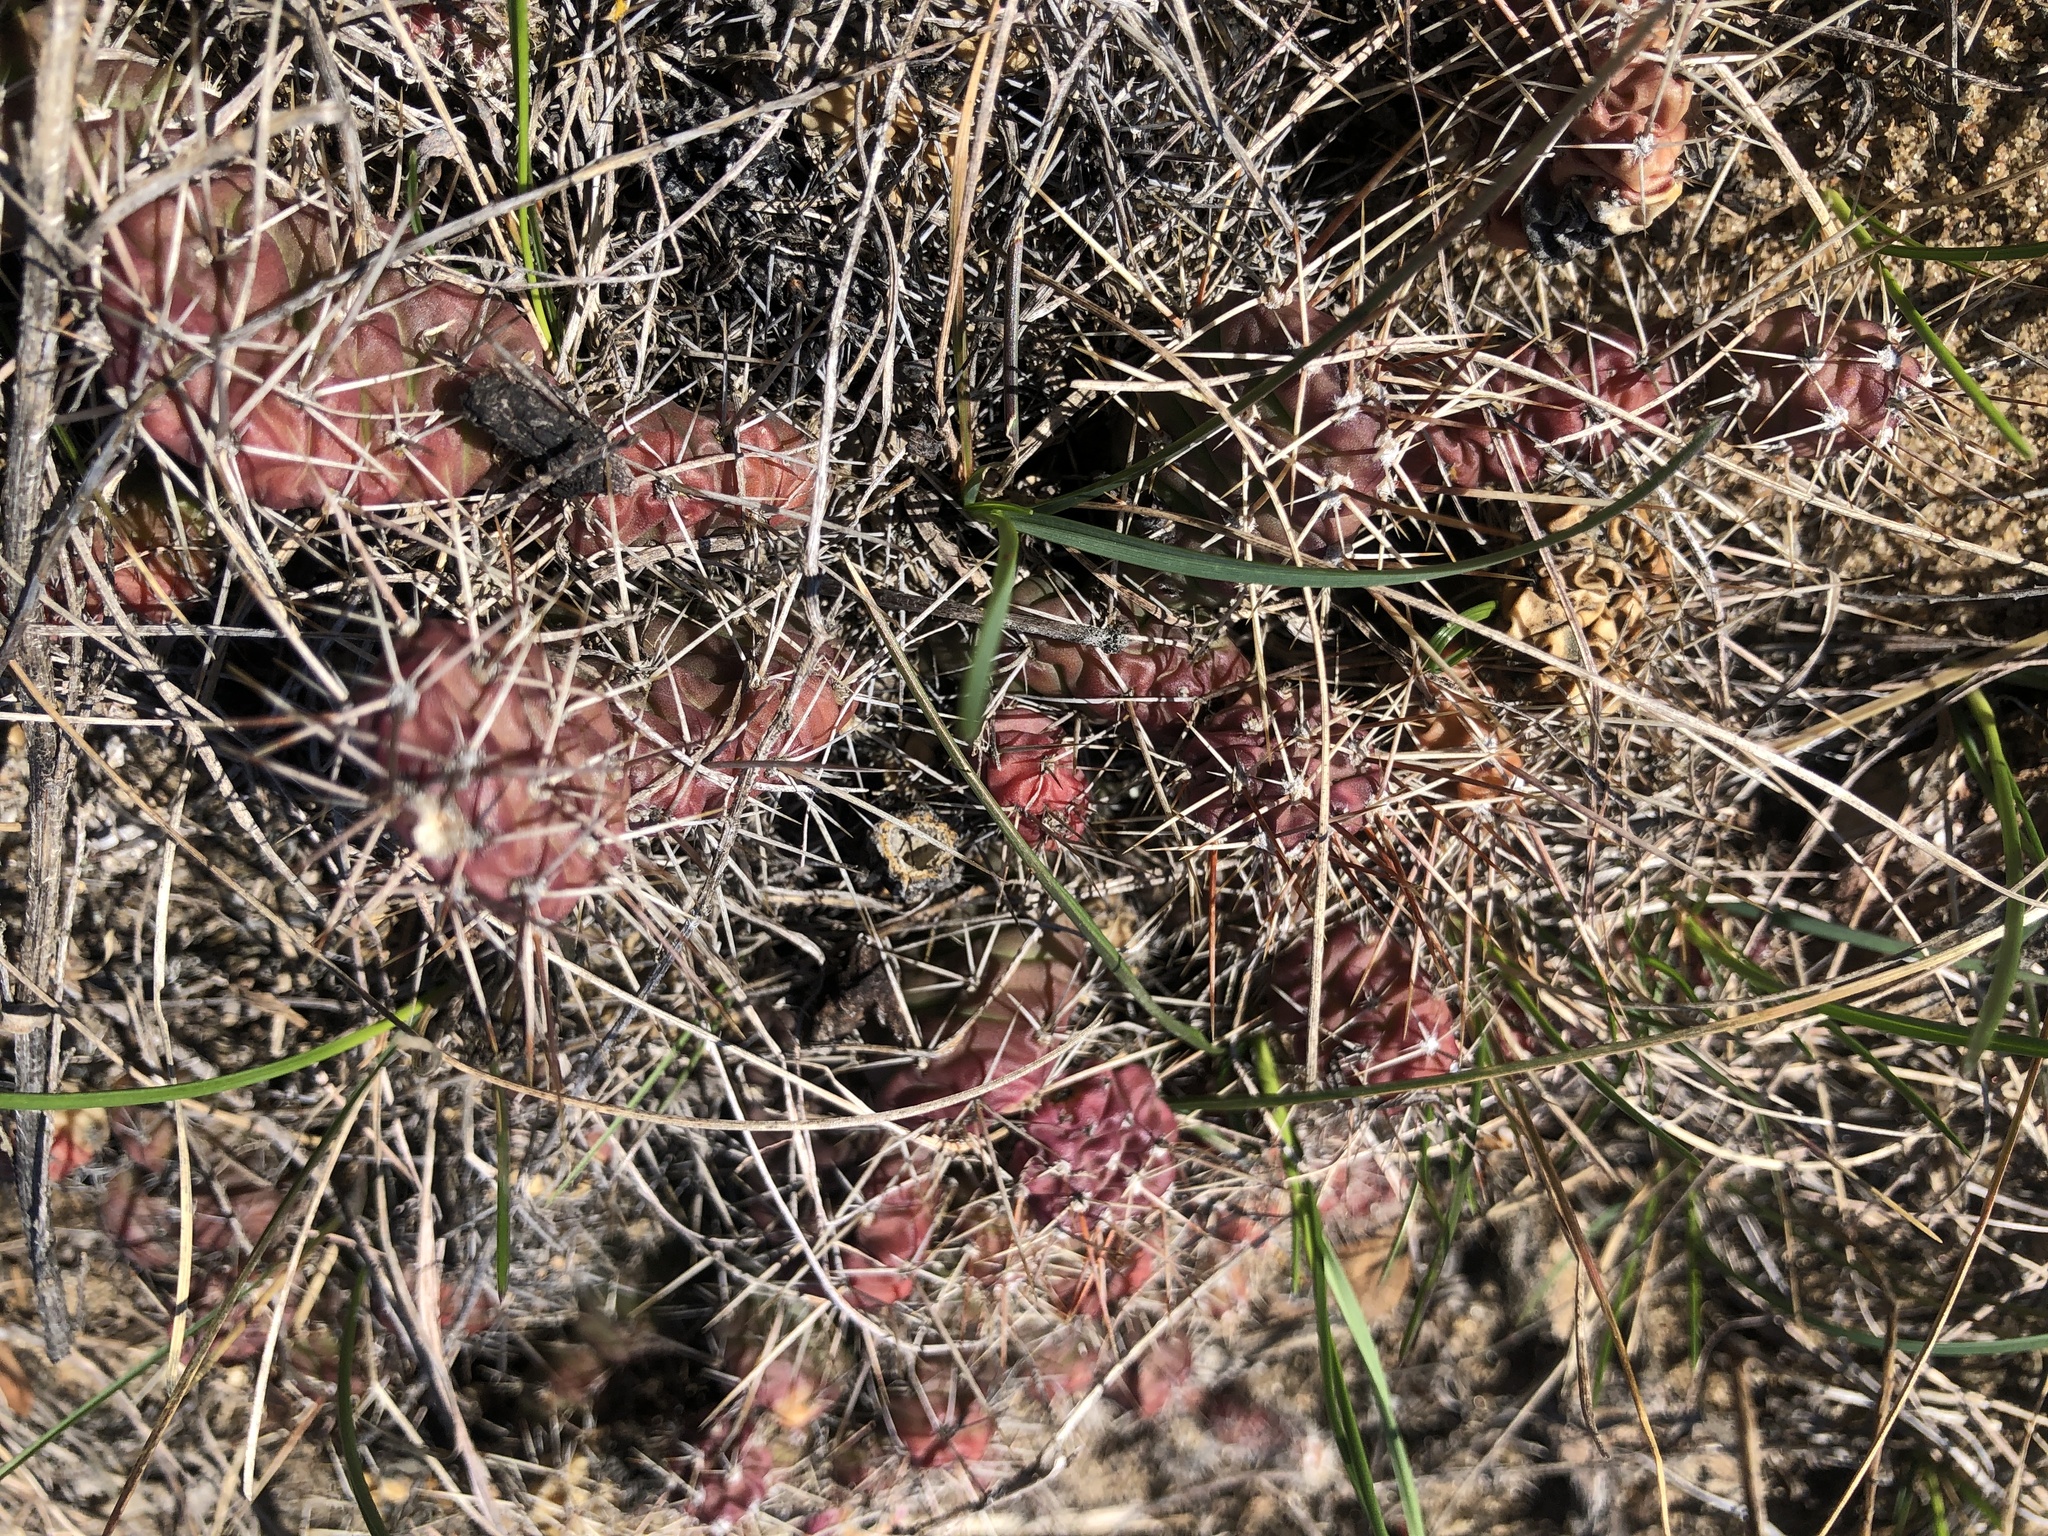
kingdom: Plantae
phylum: Tracheophyta
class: Magnoliopsida
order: Caryophyllales
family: Cactaceae
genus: Opuntia
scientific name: Opuntia fragilis
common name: Brittle cactus
